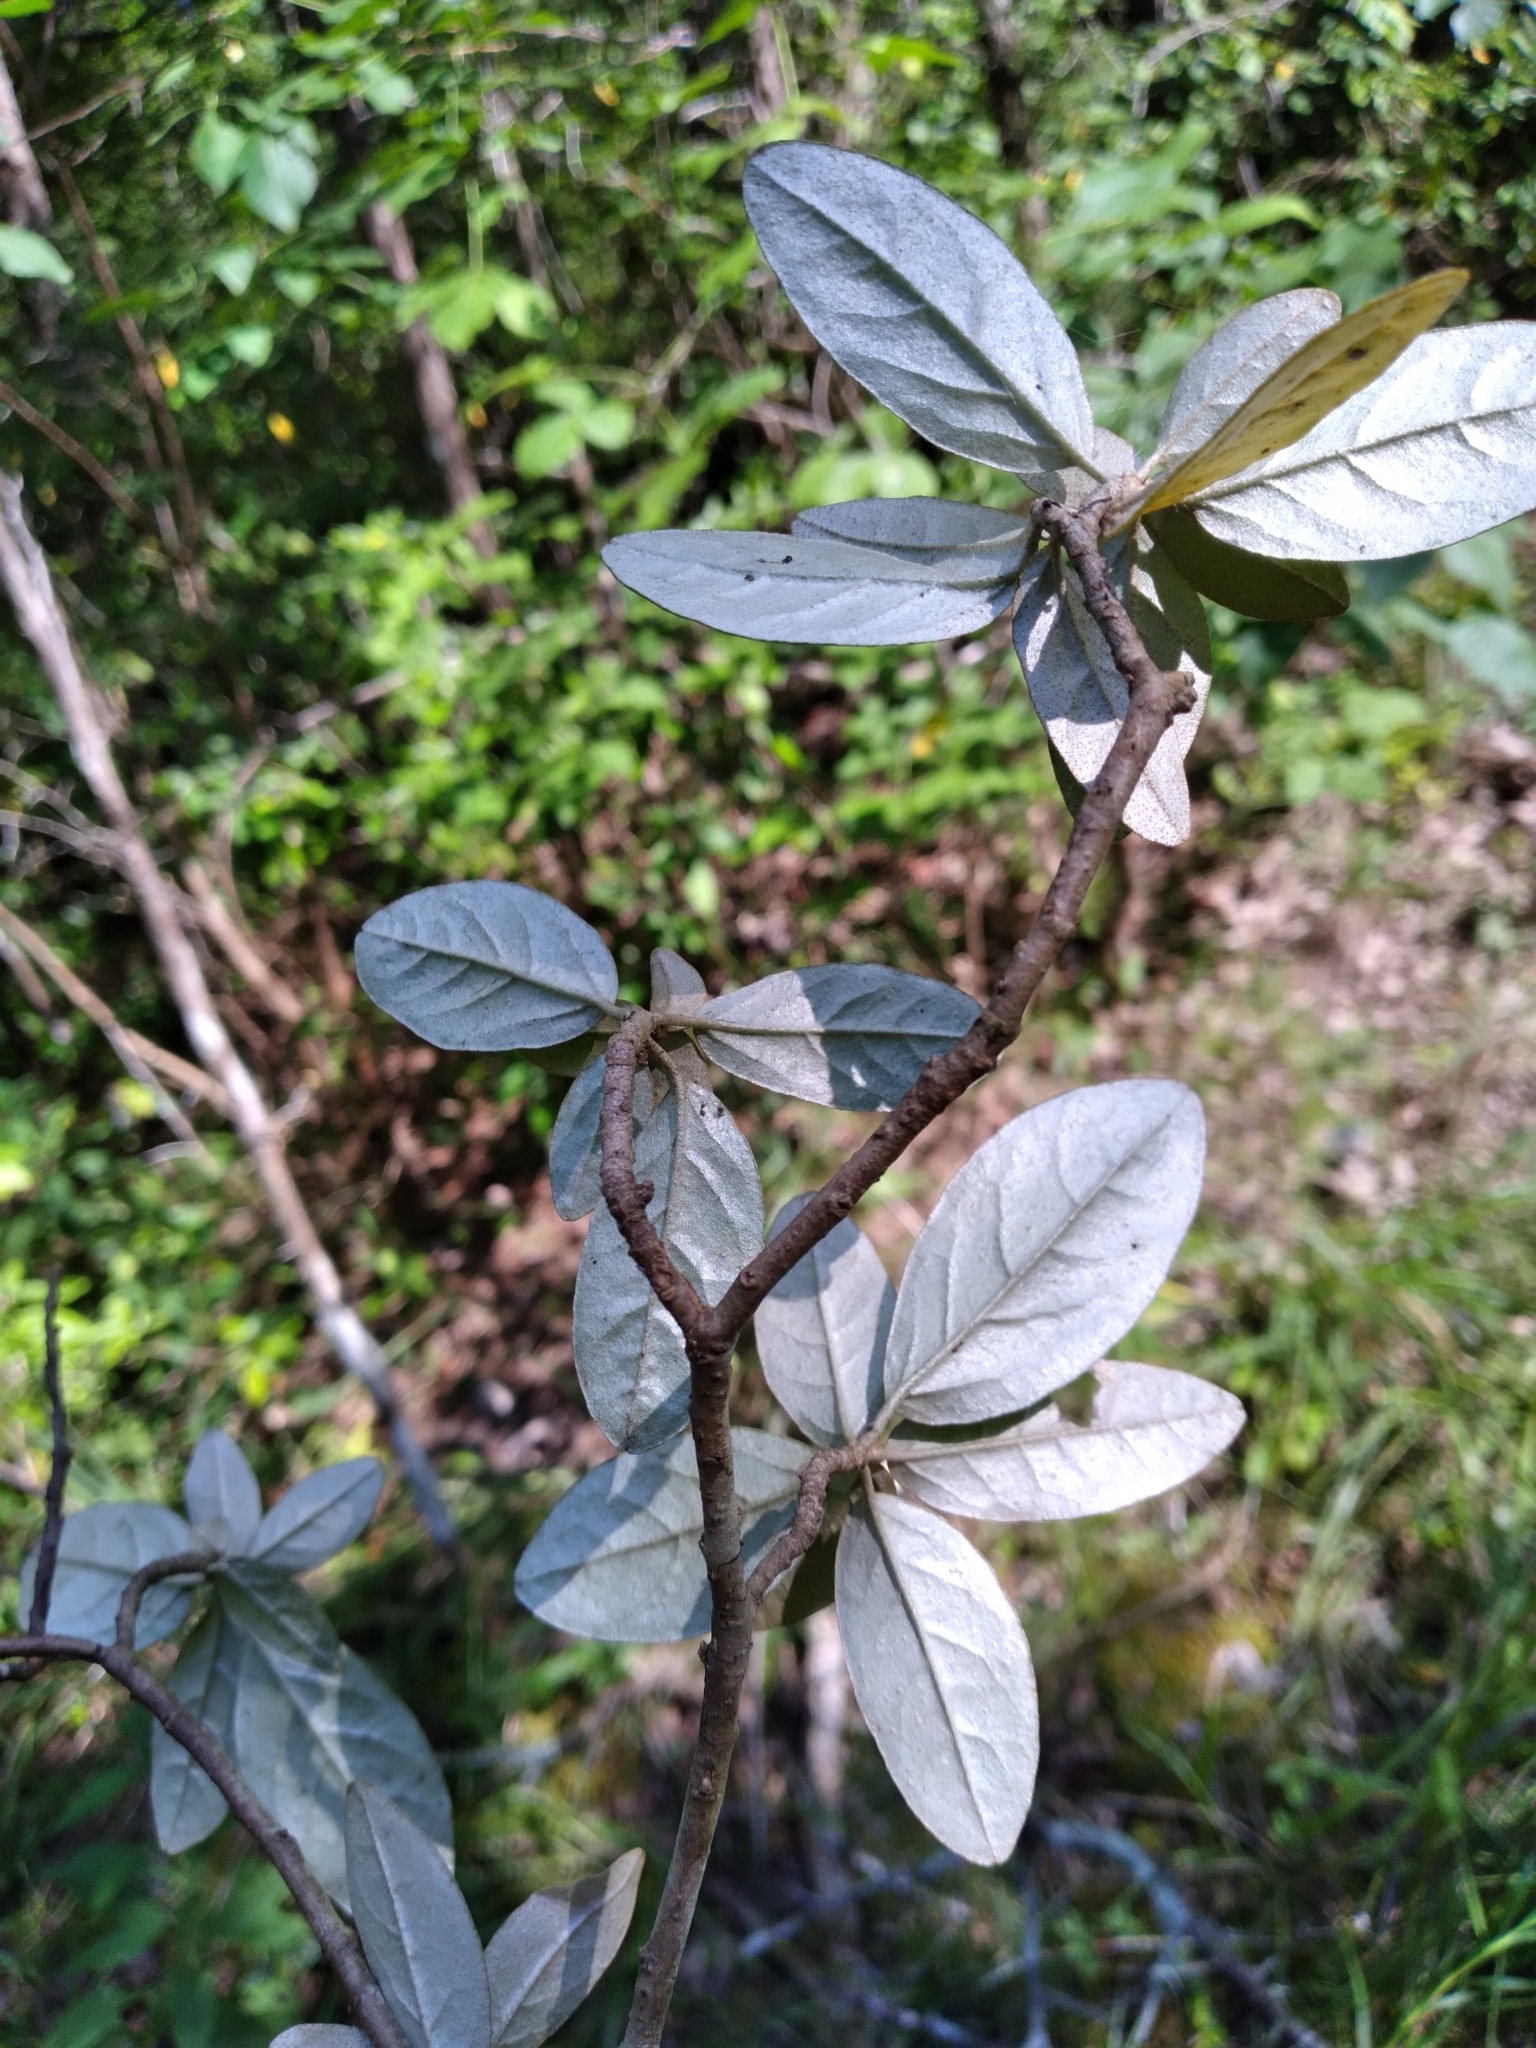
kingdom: Plantae
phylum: Tracheophyta
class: Magnoliopsida
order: Malpighiales
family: Euphorbiaceae
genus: Croton
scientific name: Croton alabamensis
